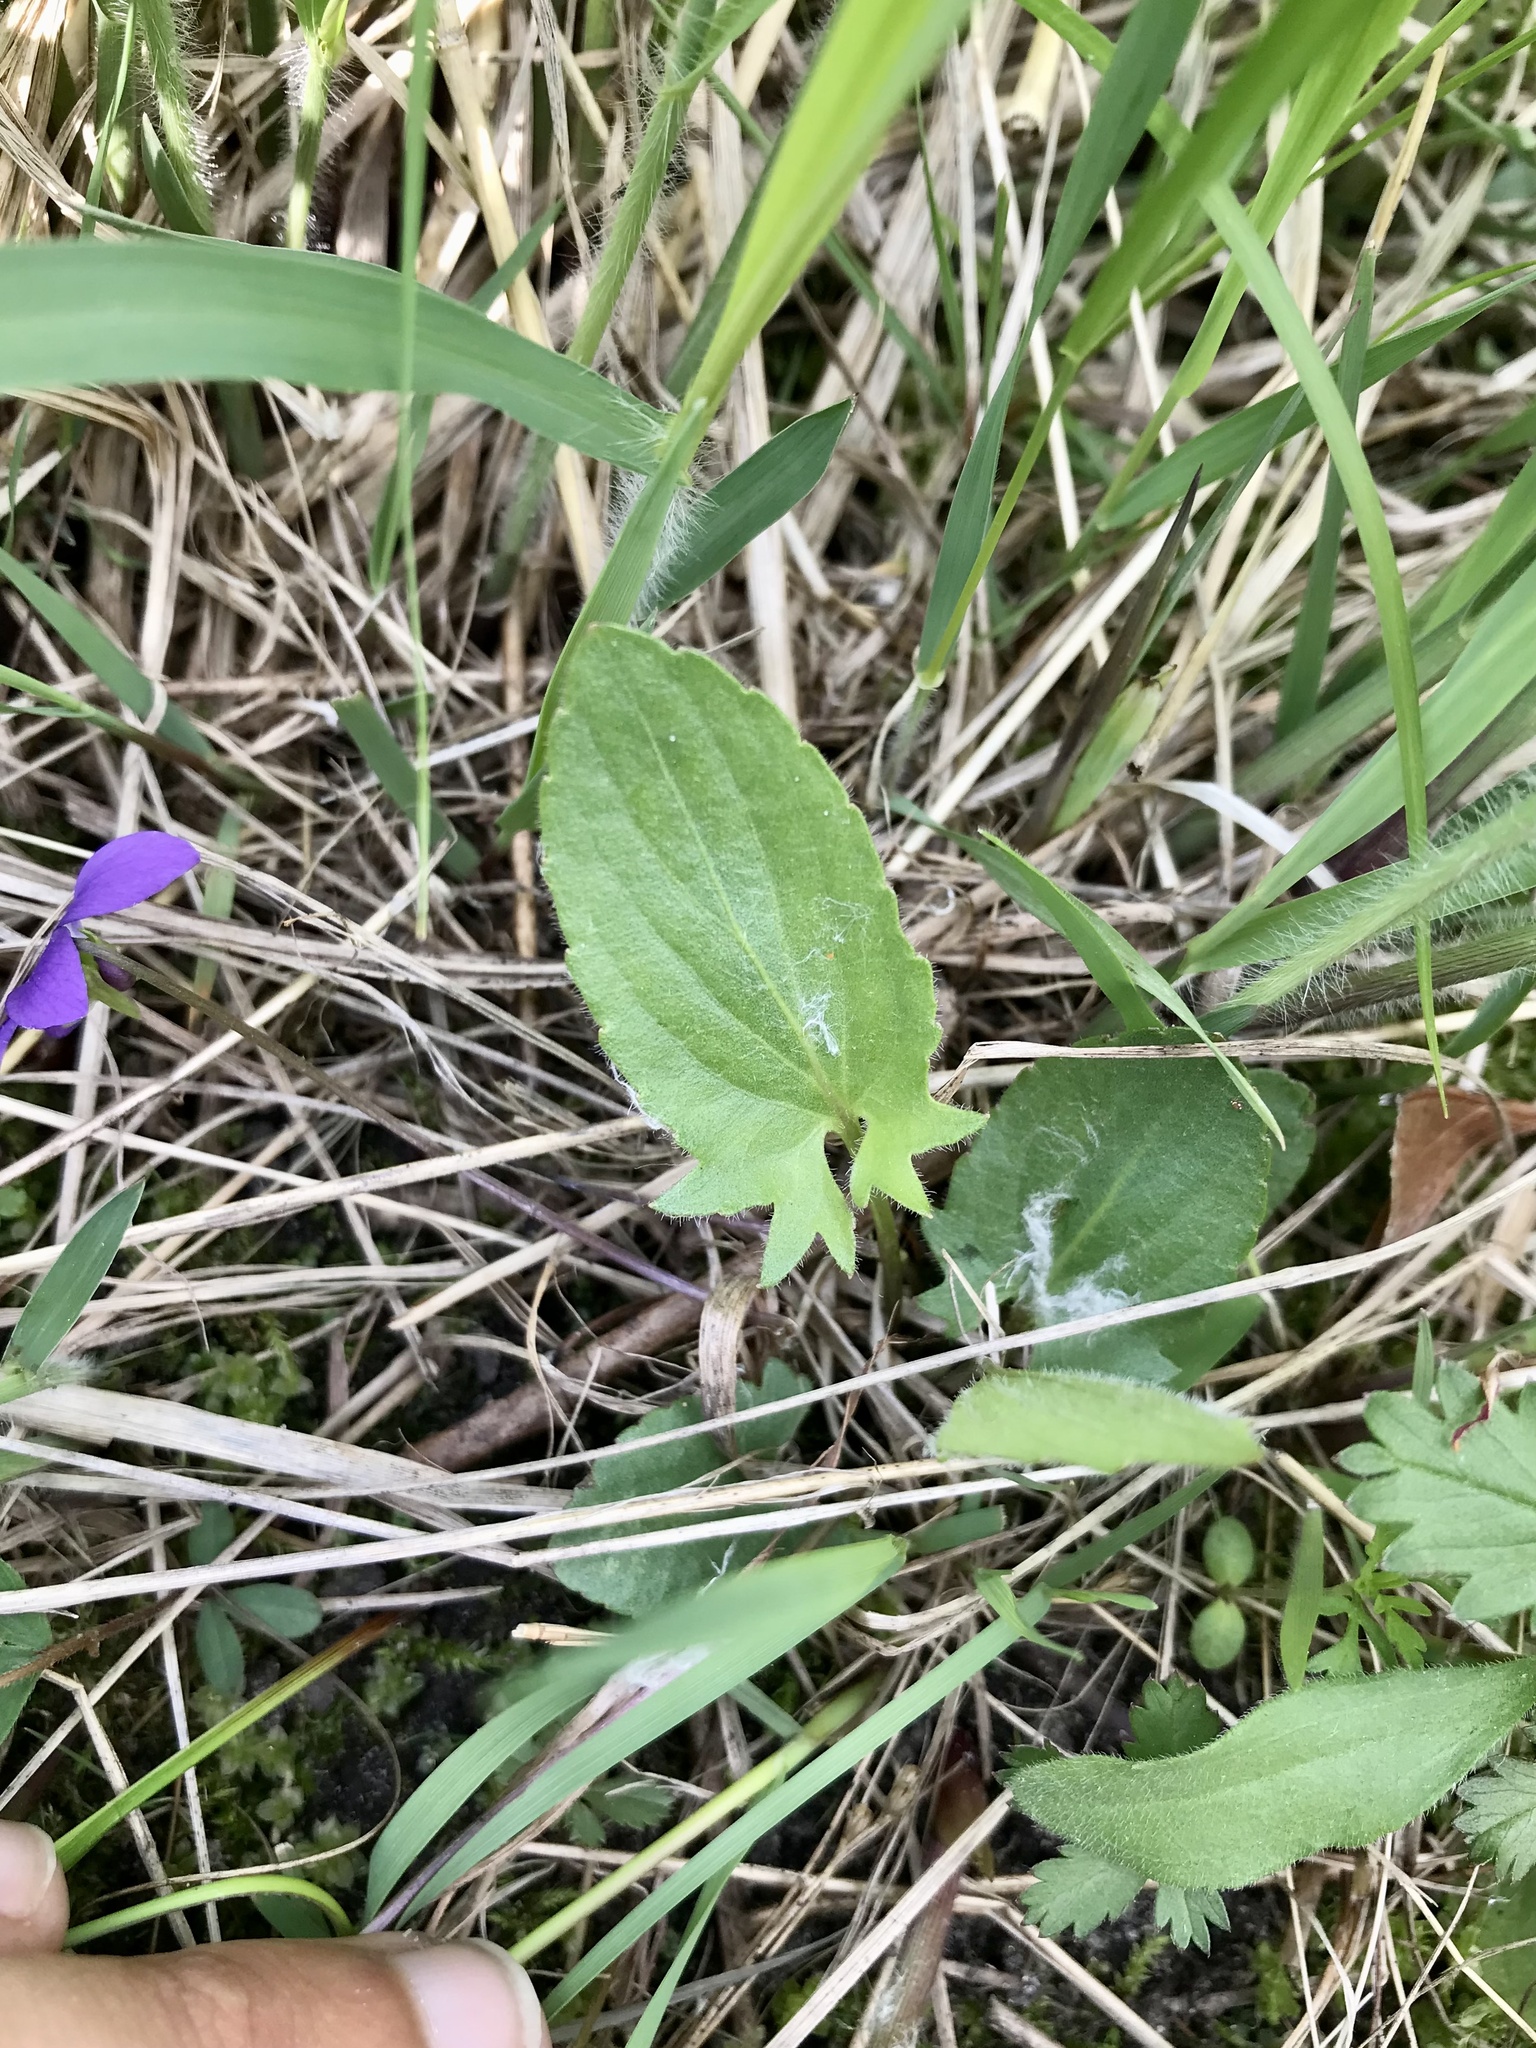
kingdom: Plantae
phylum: Tracheophyta
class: Magnoliopsida
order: Malpighiales
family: Violaceae
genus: Viola
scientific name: Viola sagittata
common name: Arrowhead violet
